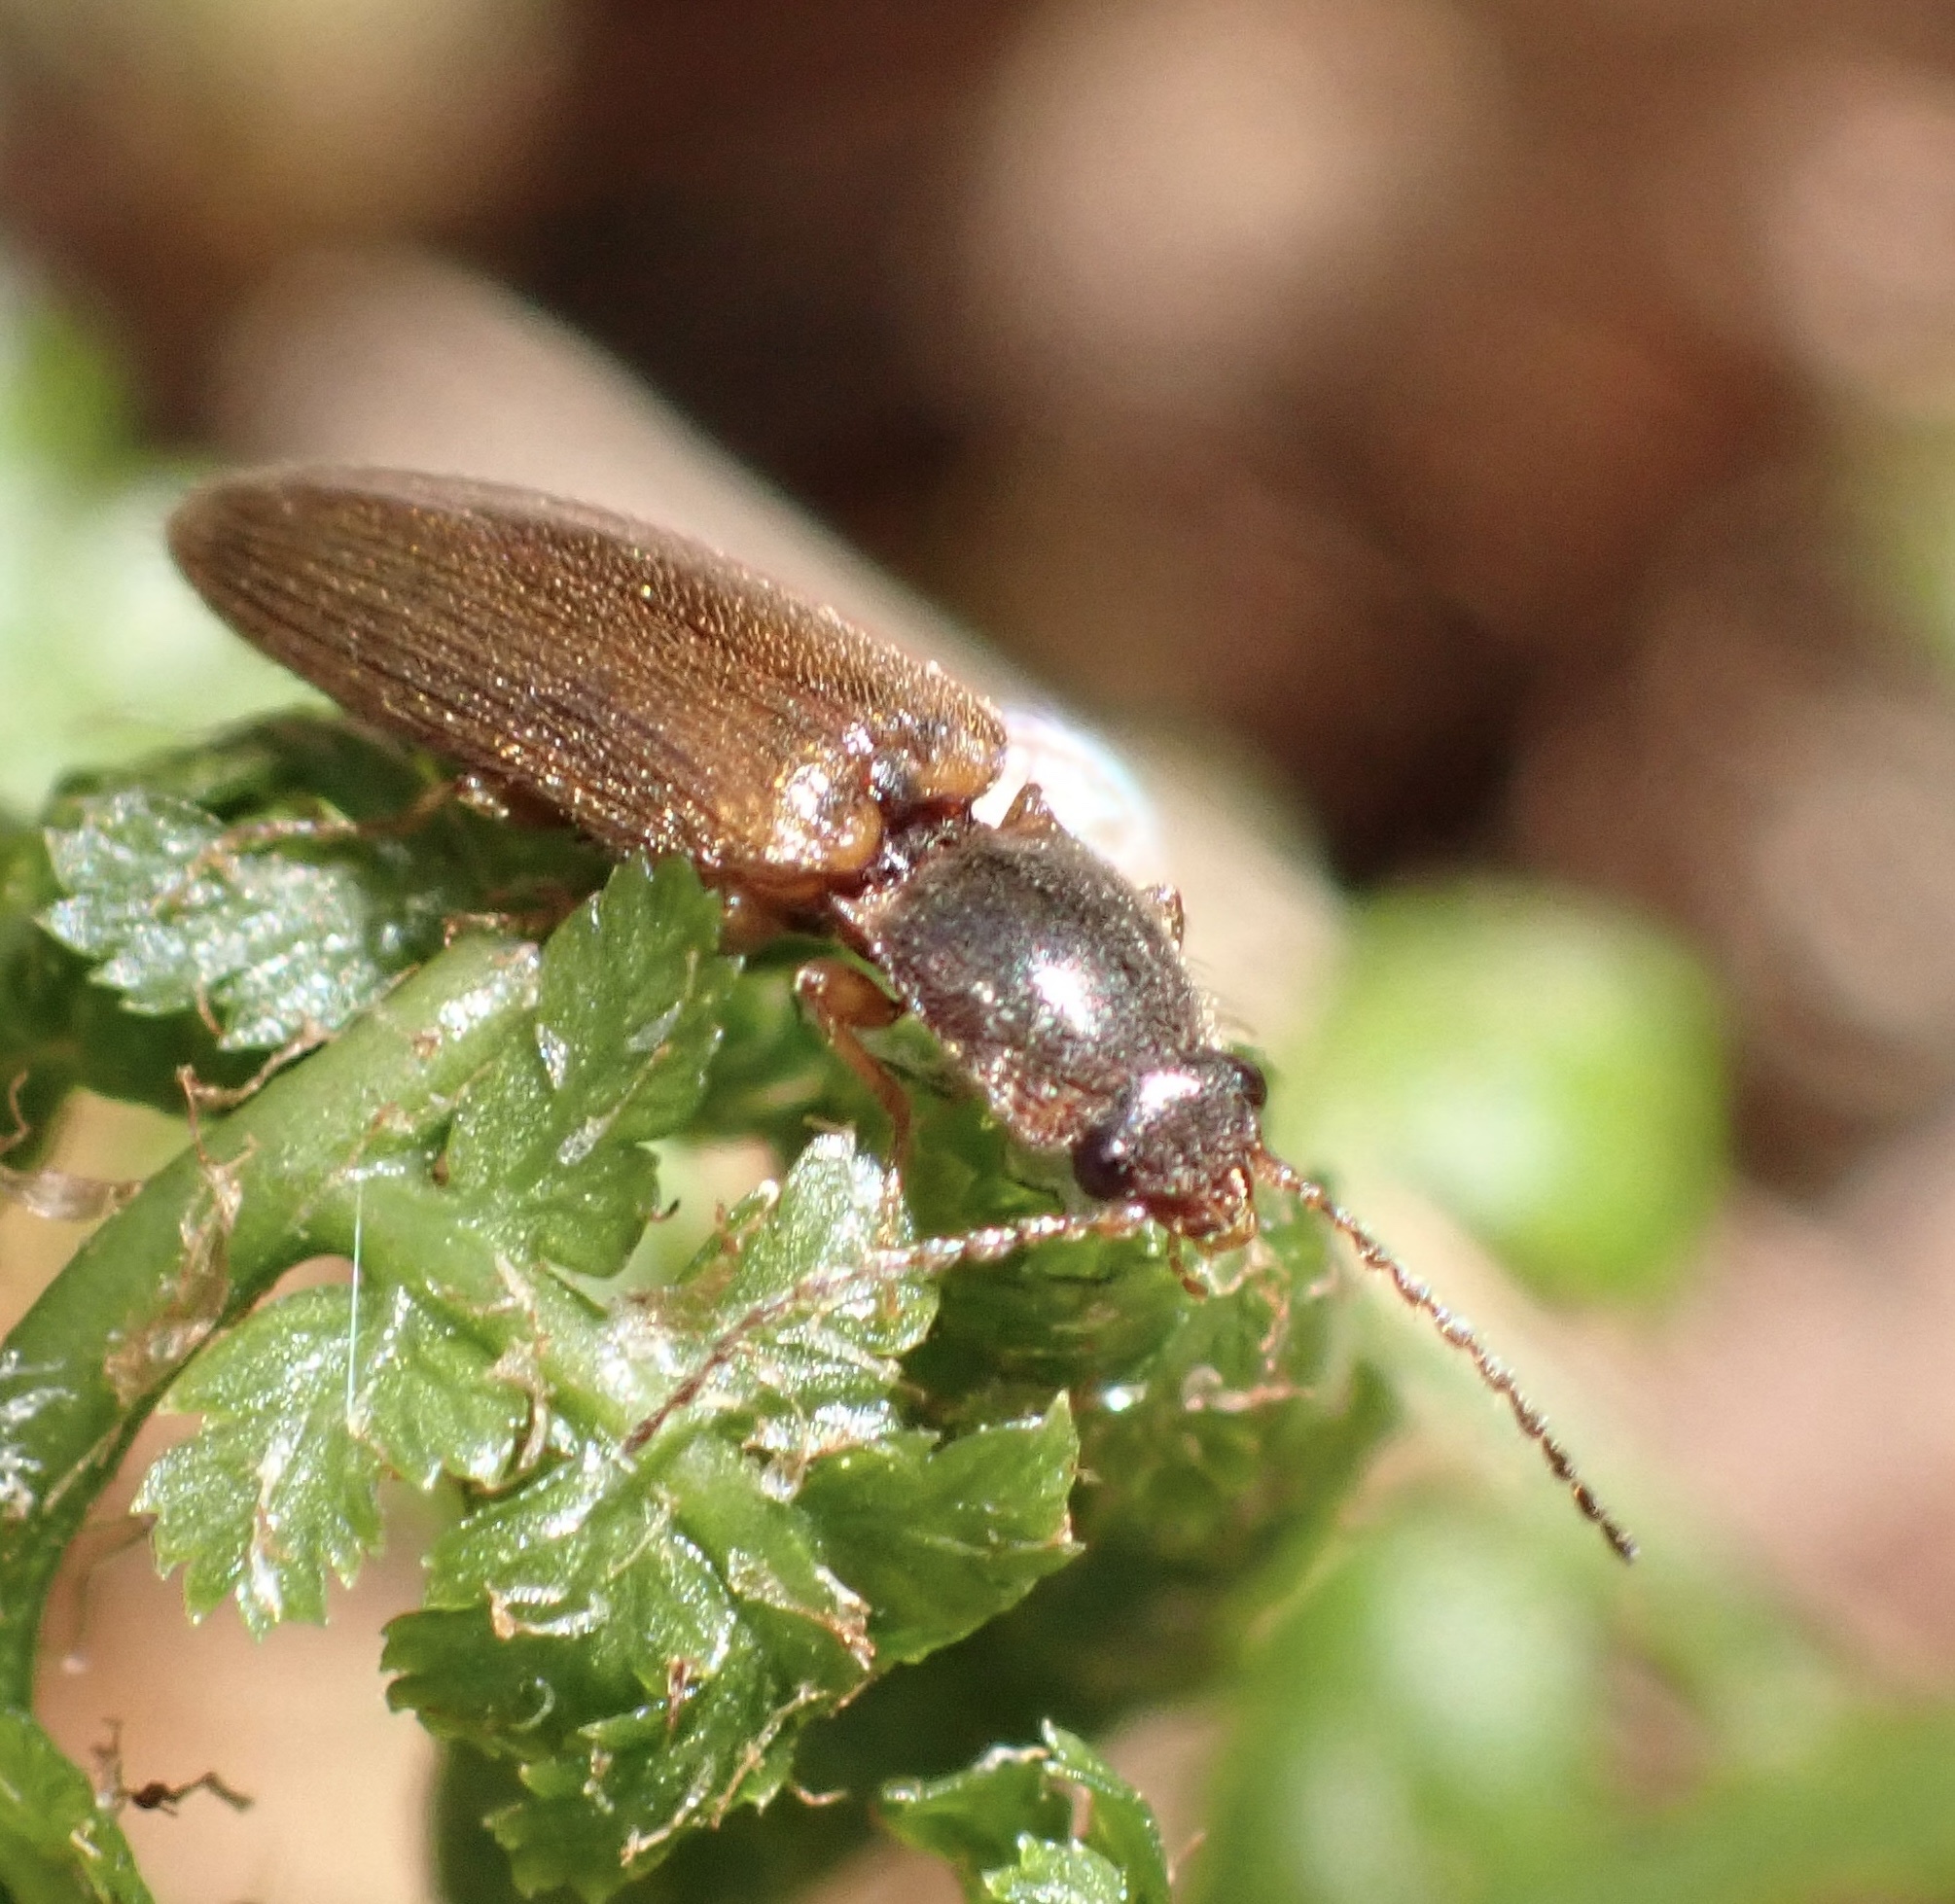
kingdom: Animalia
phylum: Arthropoda
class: Insecta
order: Coleoptera
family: Elateridae
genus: Athous
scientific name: Athous subfuscus
